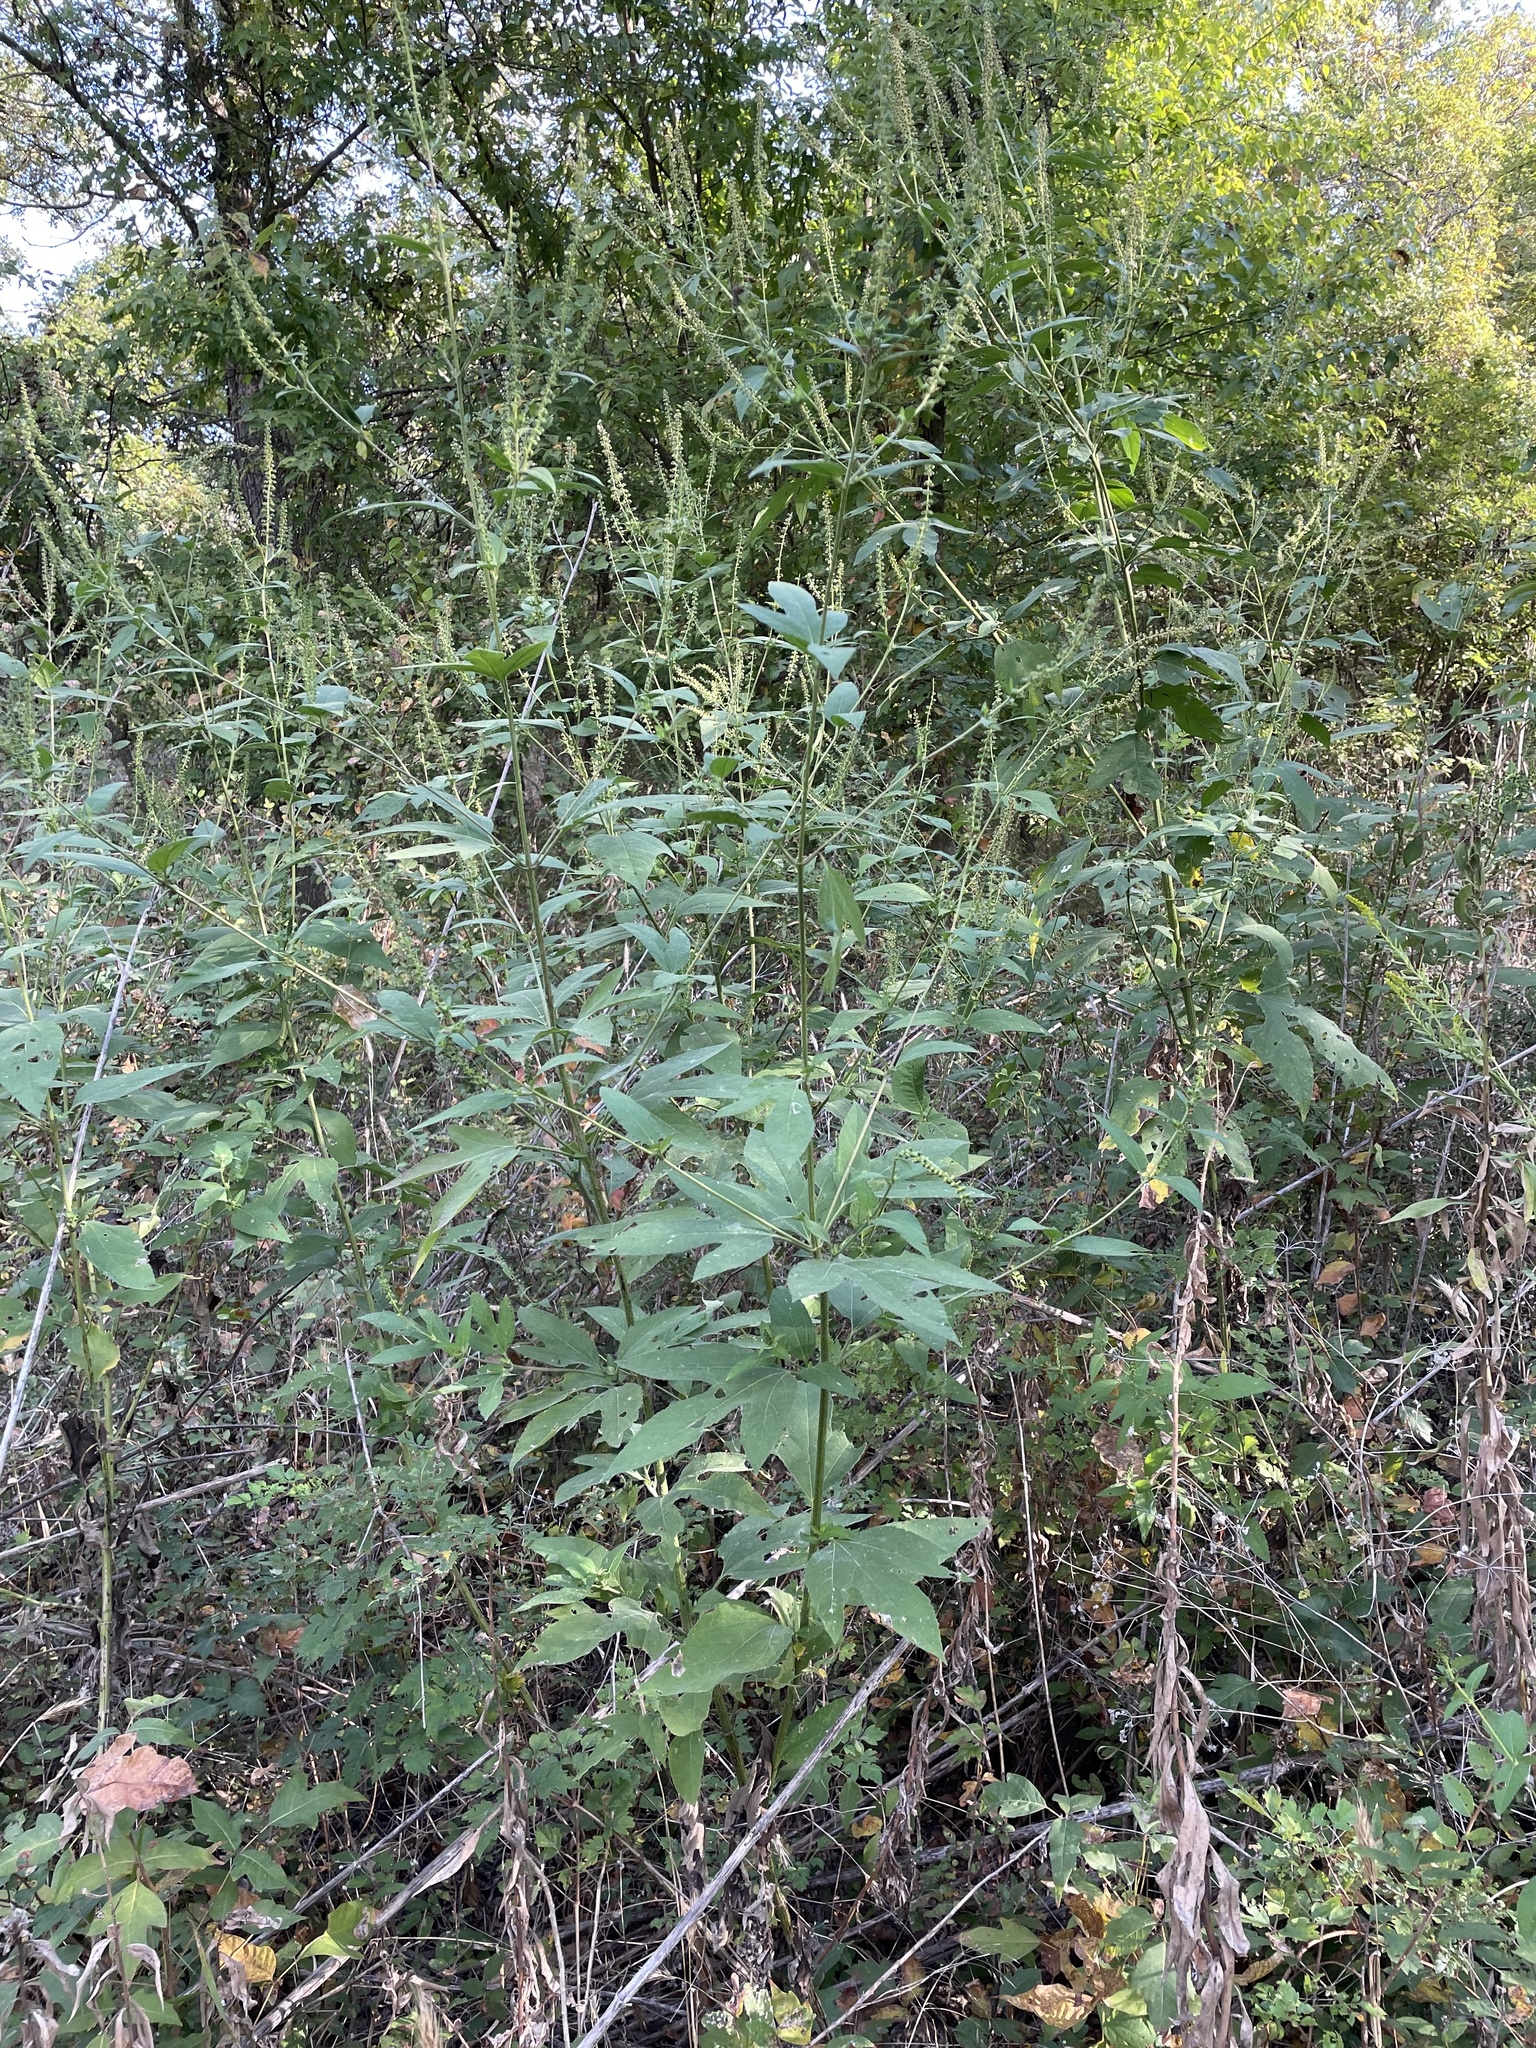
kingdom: Plantae
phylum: Tracheophyta
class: Magnoliopsida
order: Asterales
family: Asteraceae
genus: Ambrosia
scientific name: Ambrosia trifida
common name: Giant ragweed
